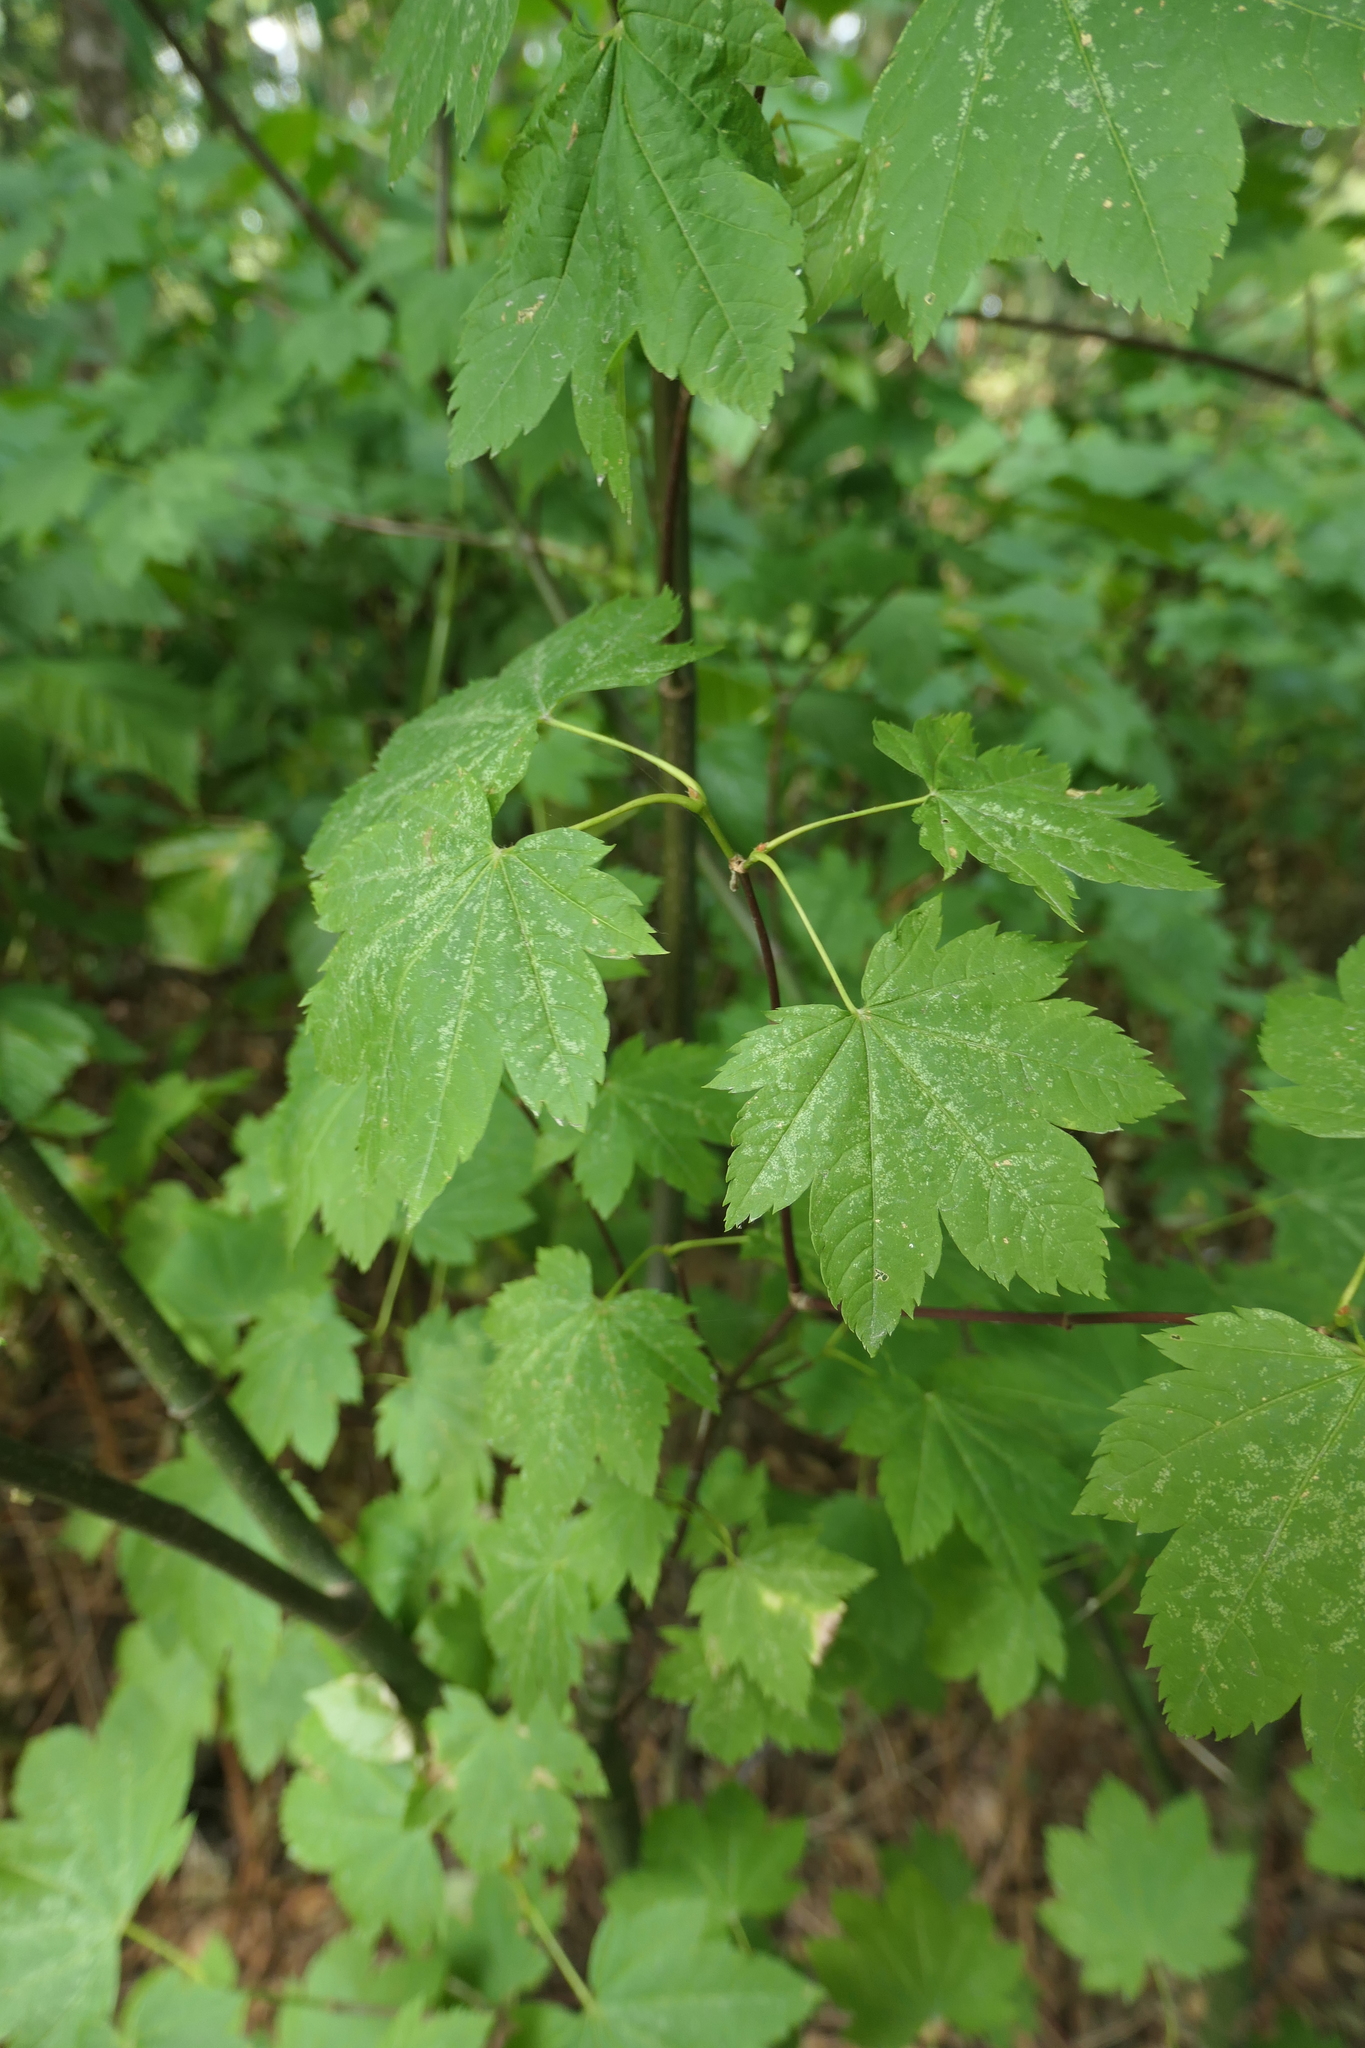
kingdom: Plantae
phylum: Tracheophyta
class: Magnoliopsida
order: Sapindales
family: Sapindaceae
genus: Acer
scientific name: Acer circinatum
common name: Vine maple
